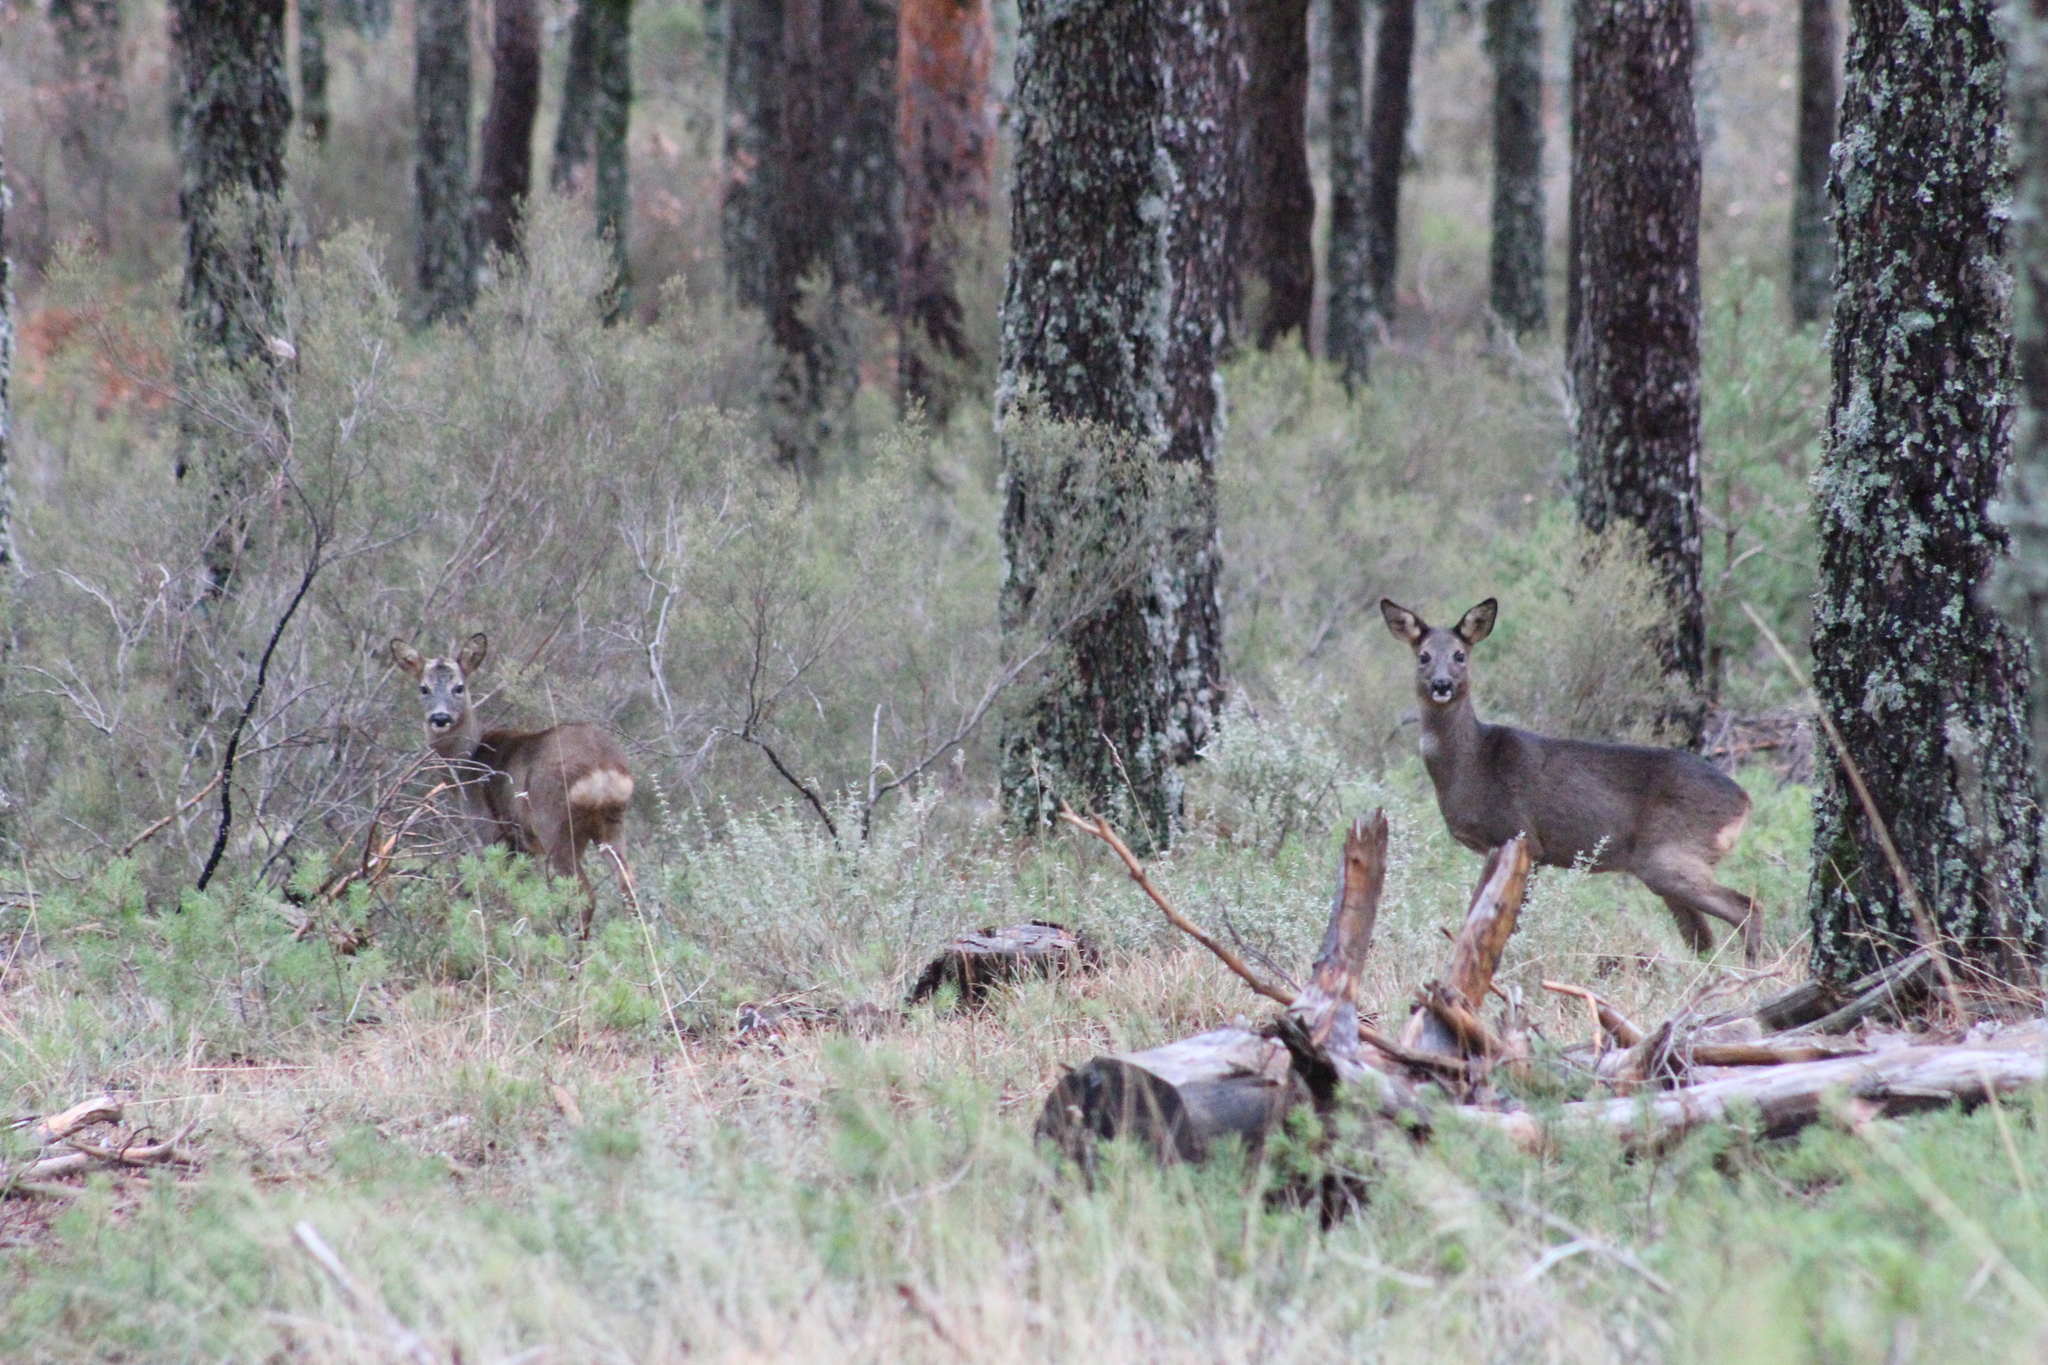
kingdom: Animalia
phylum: Chordata
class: Mammalia
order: Artiodactyla
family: Cervidae
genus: Capreolus
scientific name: Capreolus capreolus
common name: Western roe deer
